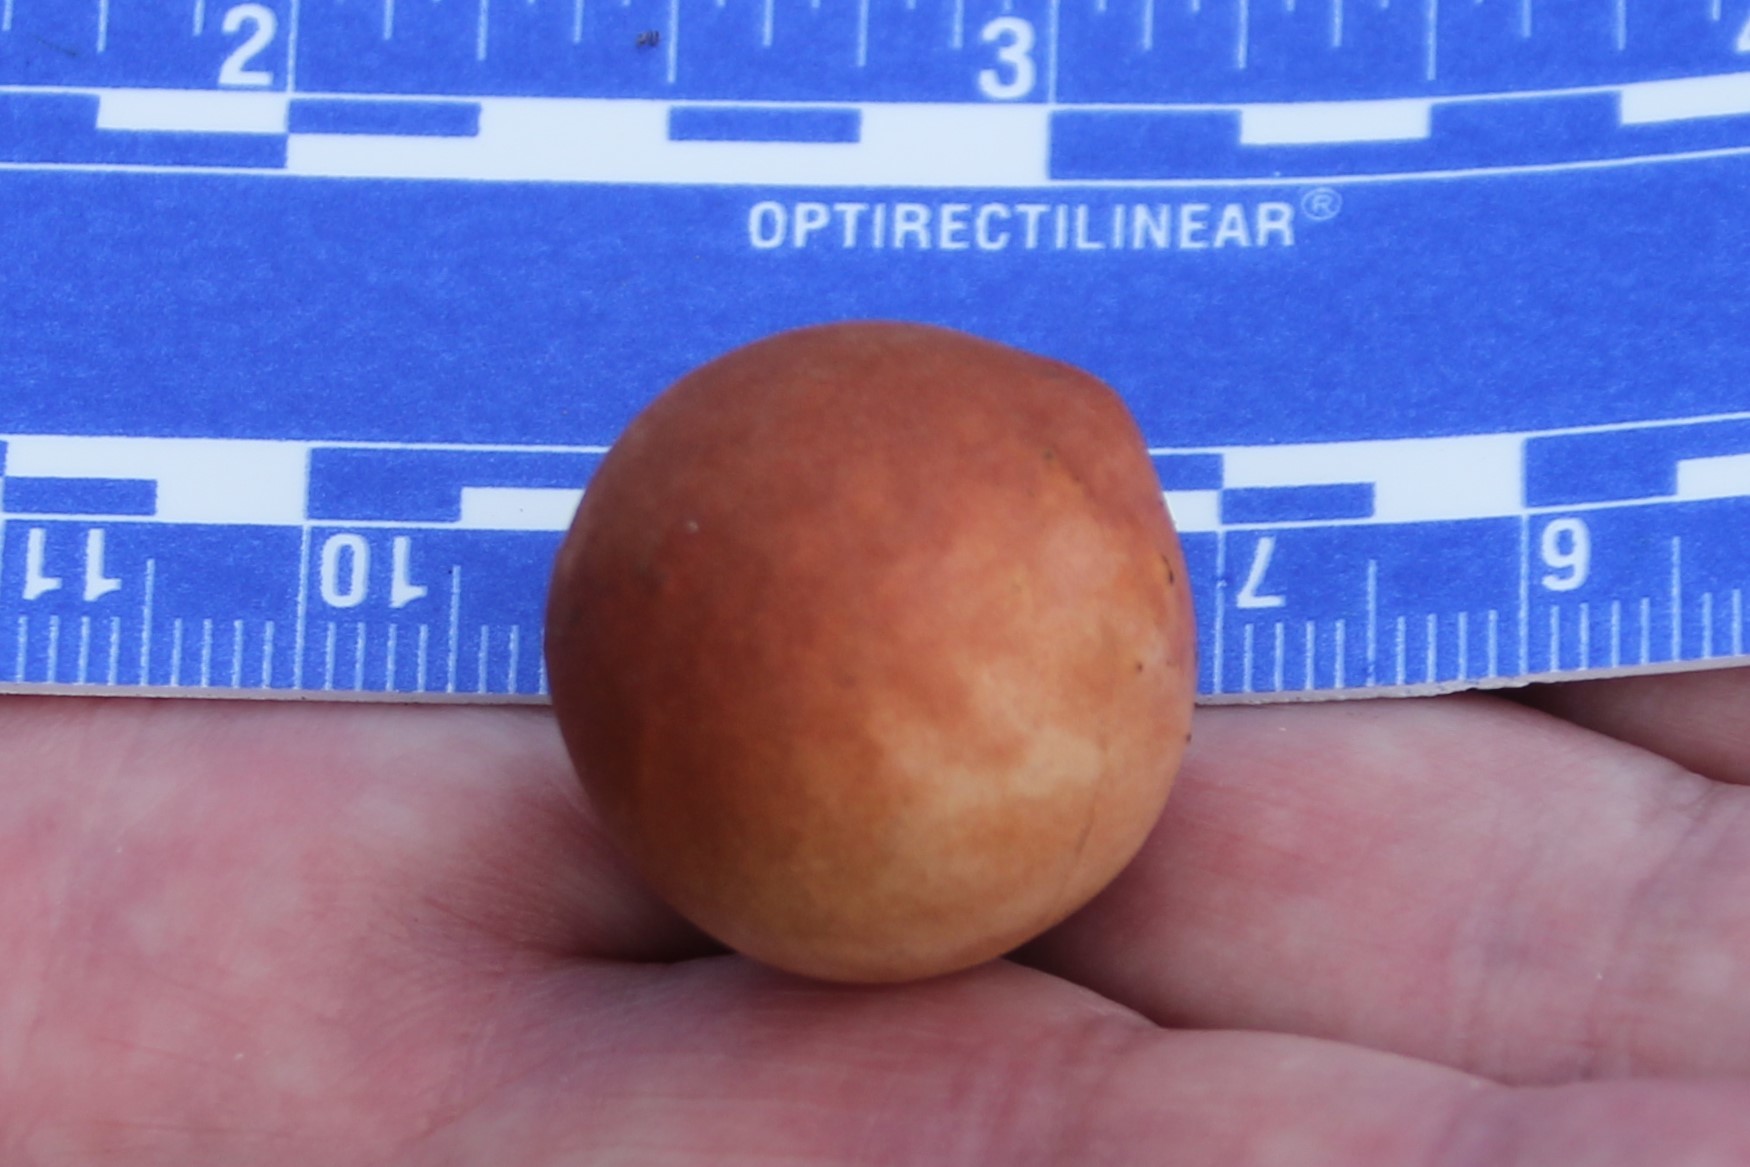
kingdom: Animalia
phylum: Arthropoda
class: Insecta
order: Hymenoptera
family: Cynipidae
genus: Andricus
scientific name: Andricus quercuscalifornicus
